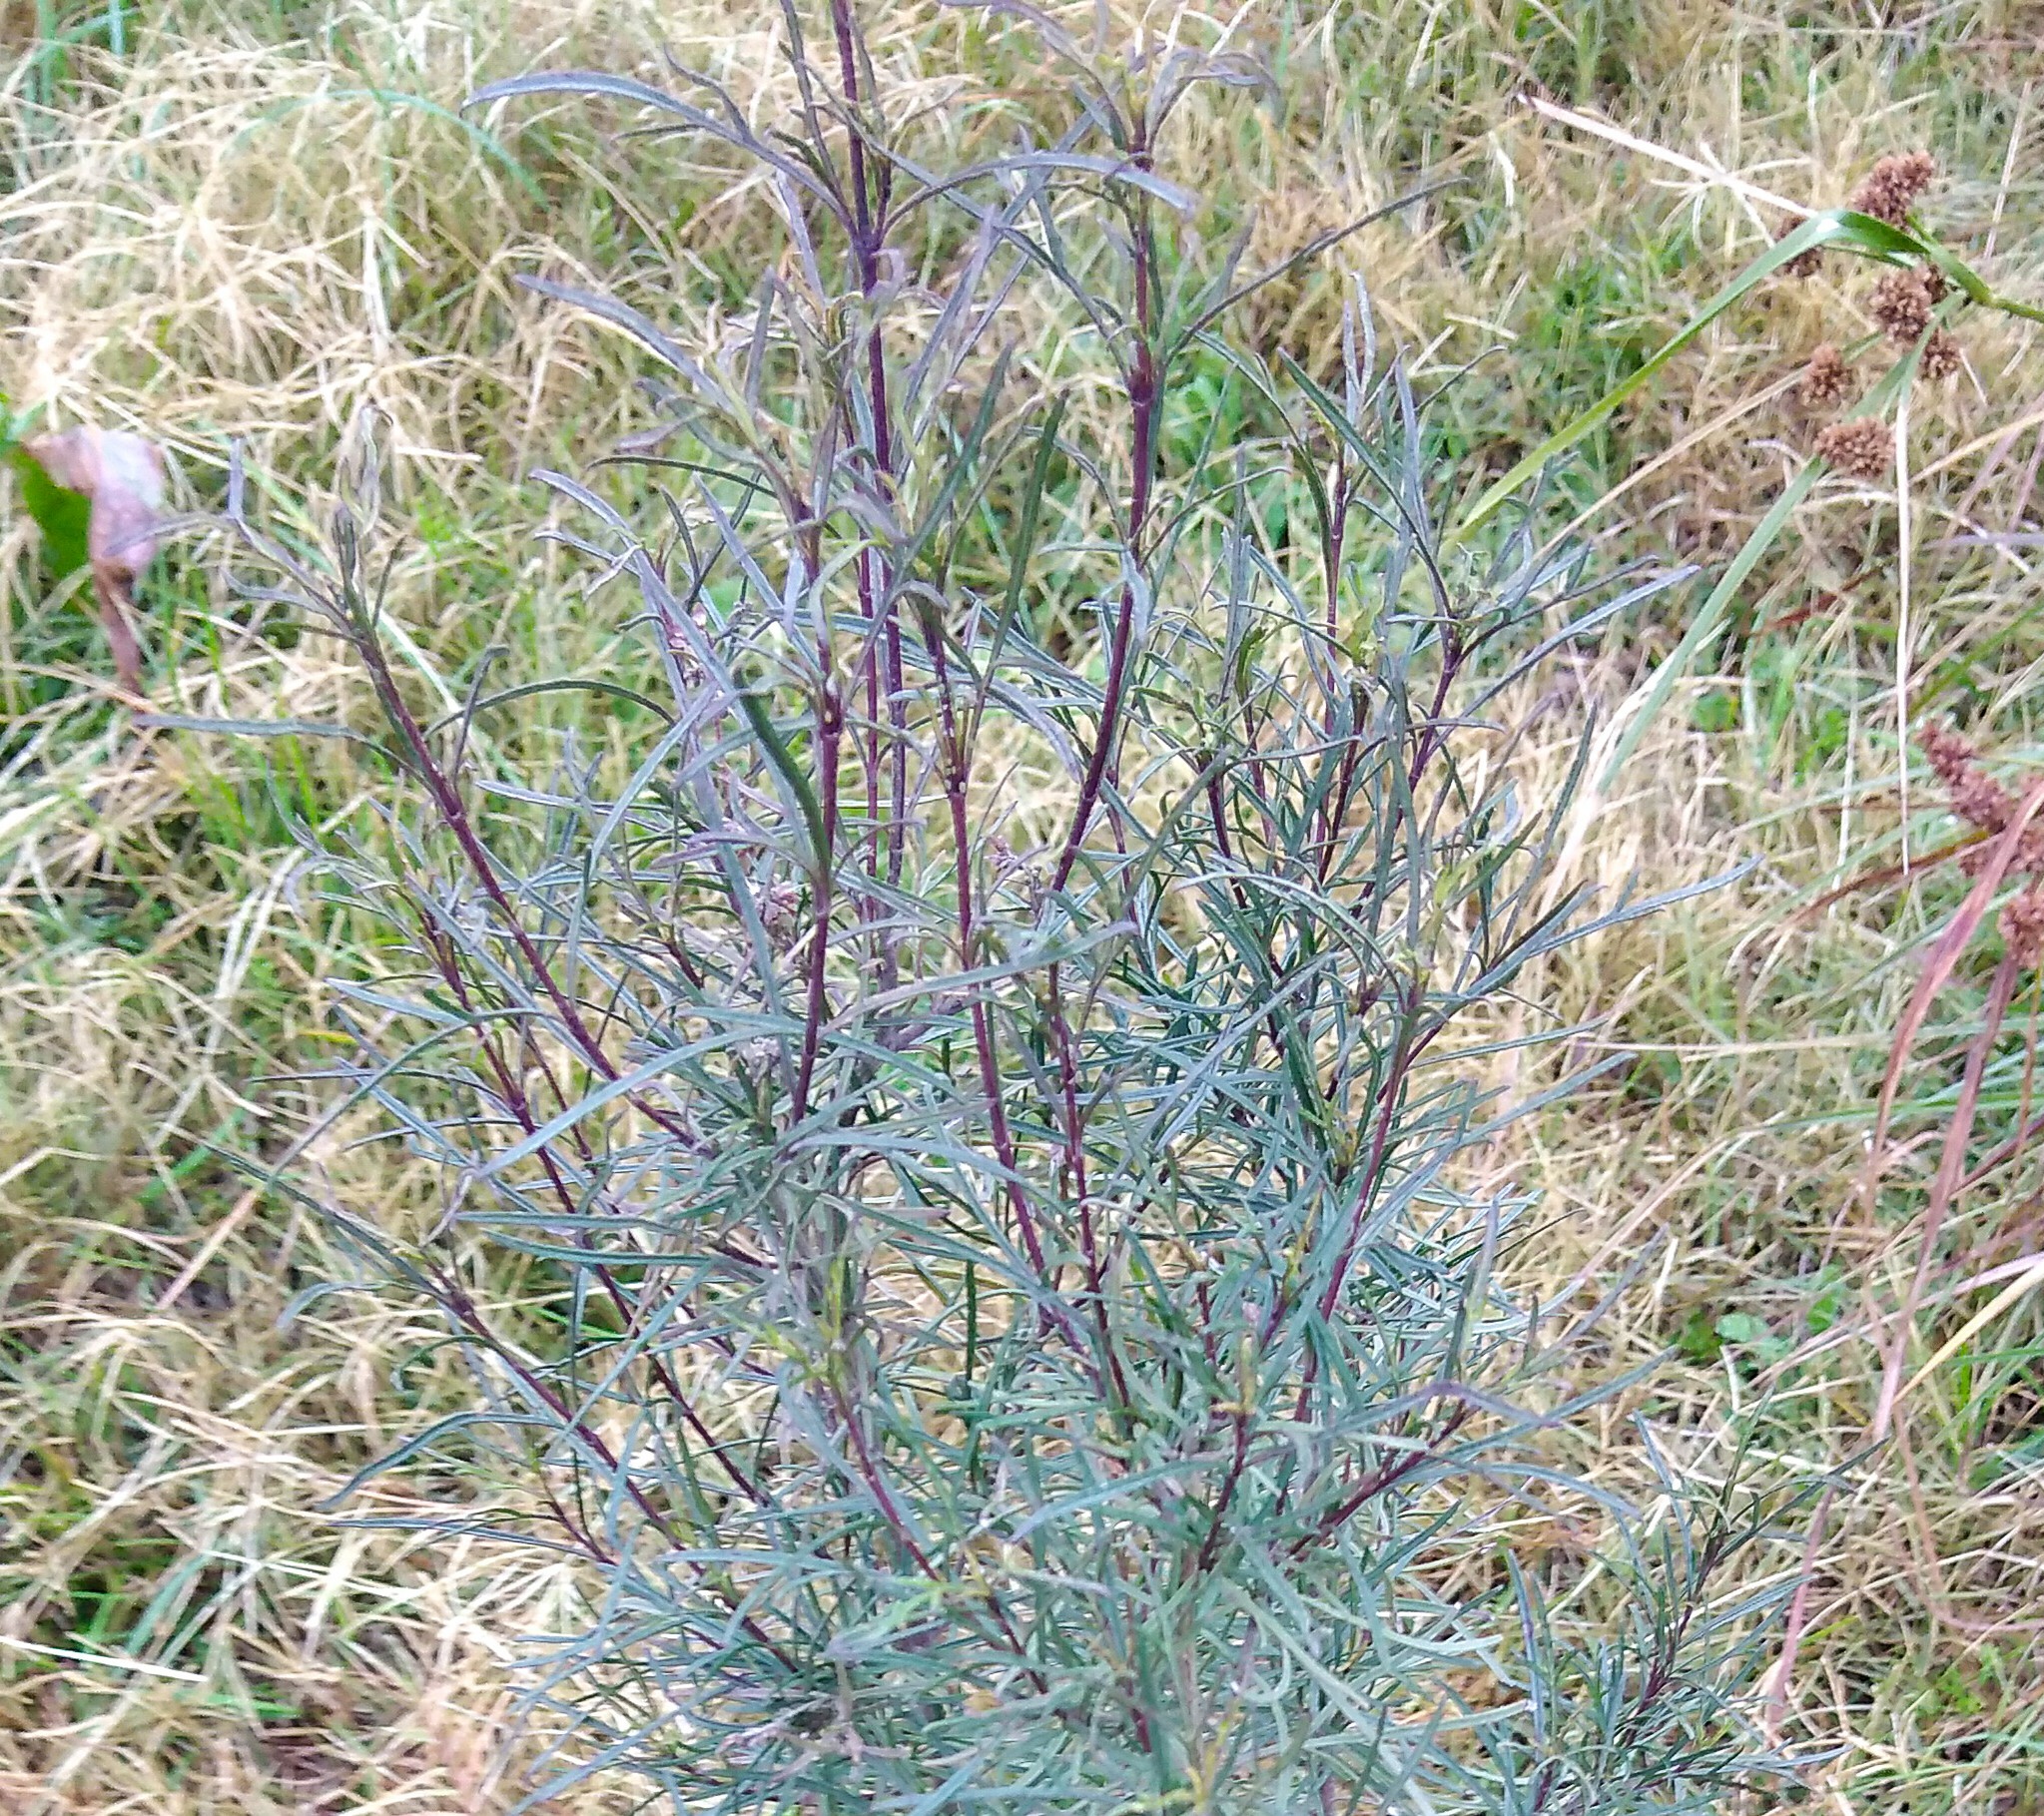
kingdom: Plantae
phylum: Tracheophyta
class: Magnoliopsida
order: Asterales
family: Asteraceae
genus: Acanthostyles
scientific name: Acanthostyles buniifolius
